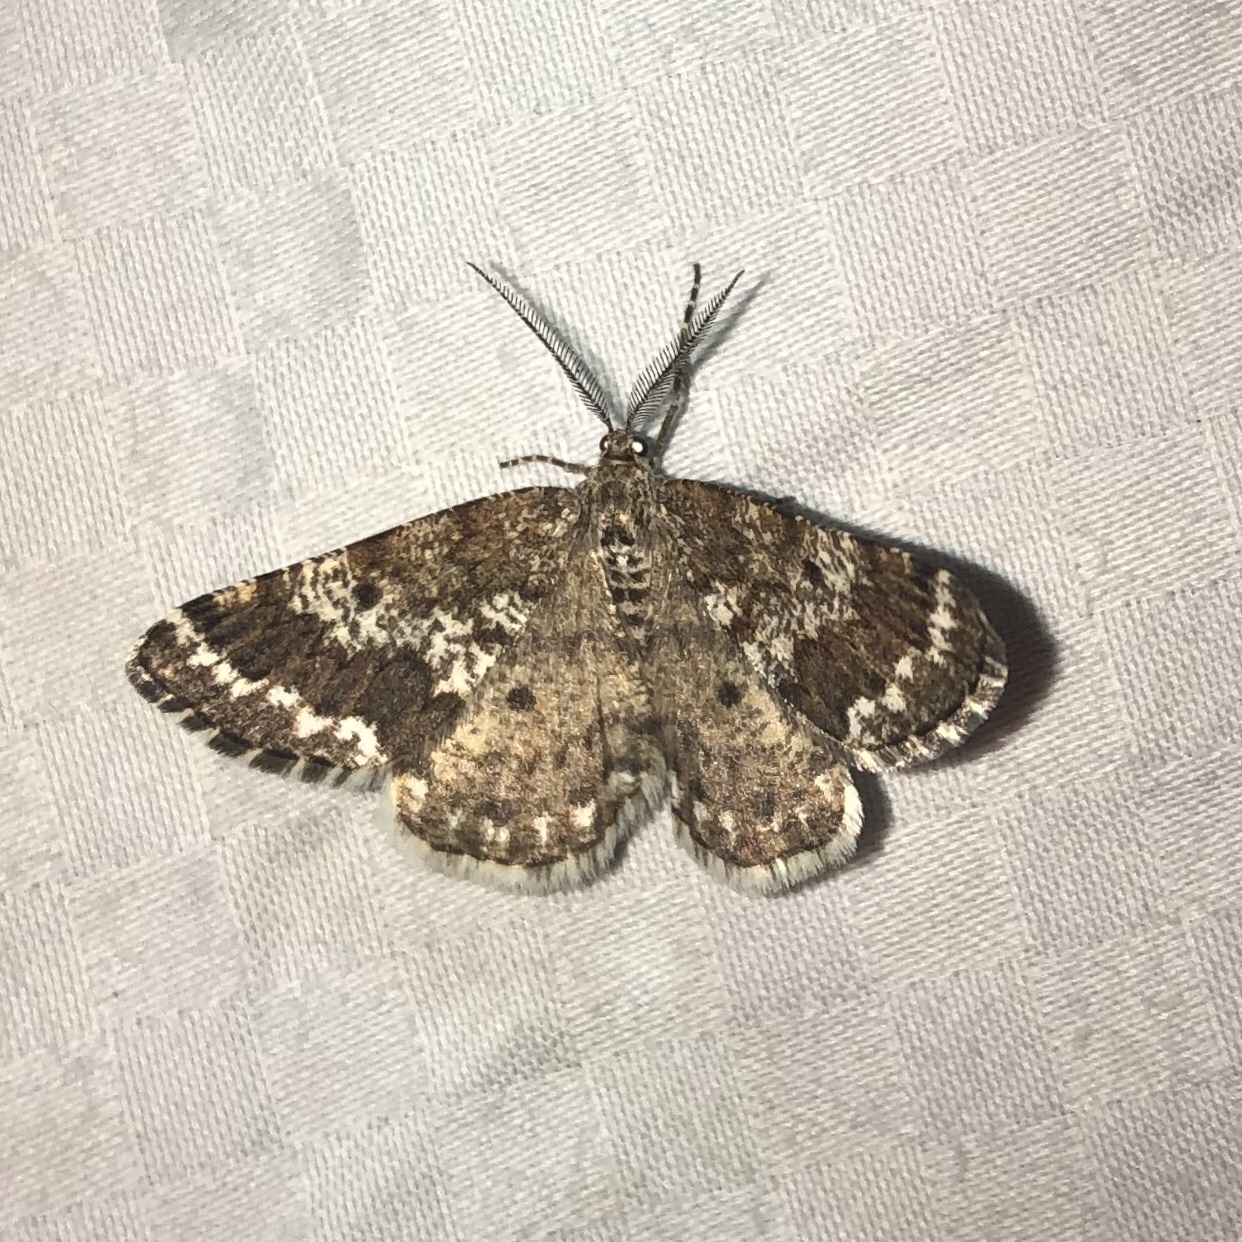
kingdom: Animalia
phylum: Arthropoda
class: Insecta
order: Lepidoptera
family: Geometridae
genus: Eufidonia
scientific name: Eufidonia notataria
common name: Powder moth
